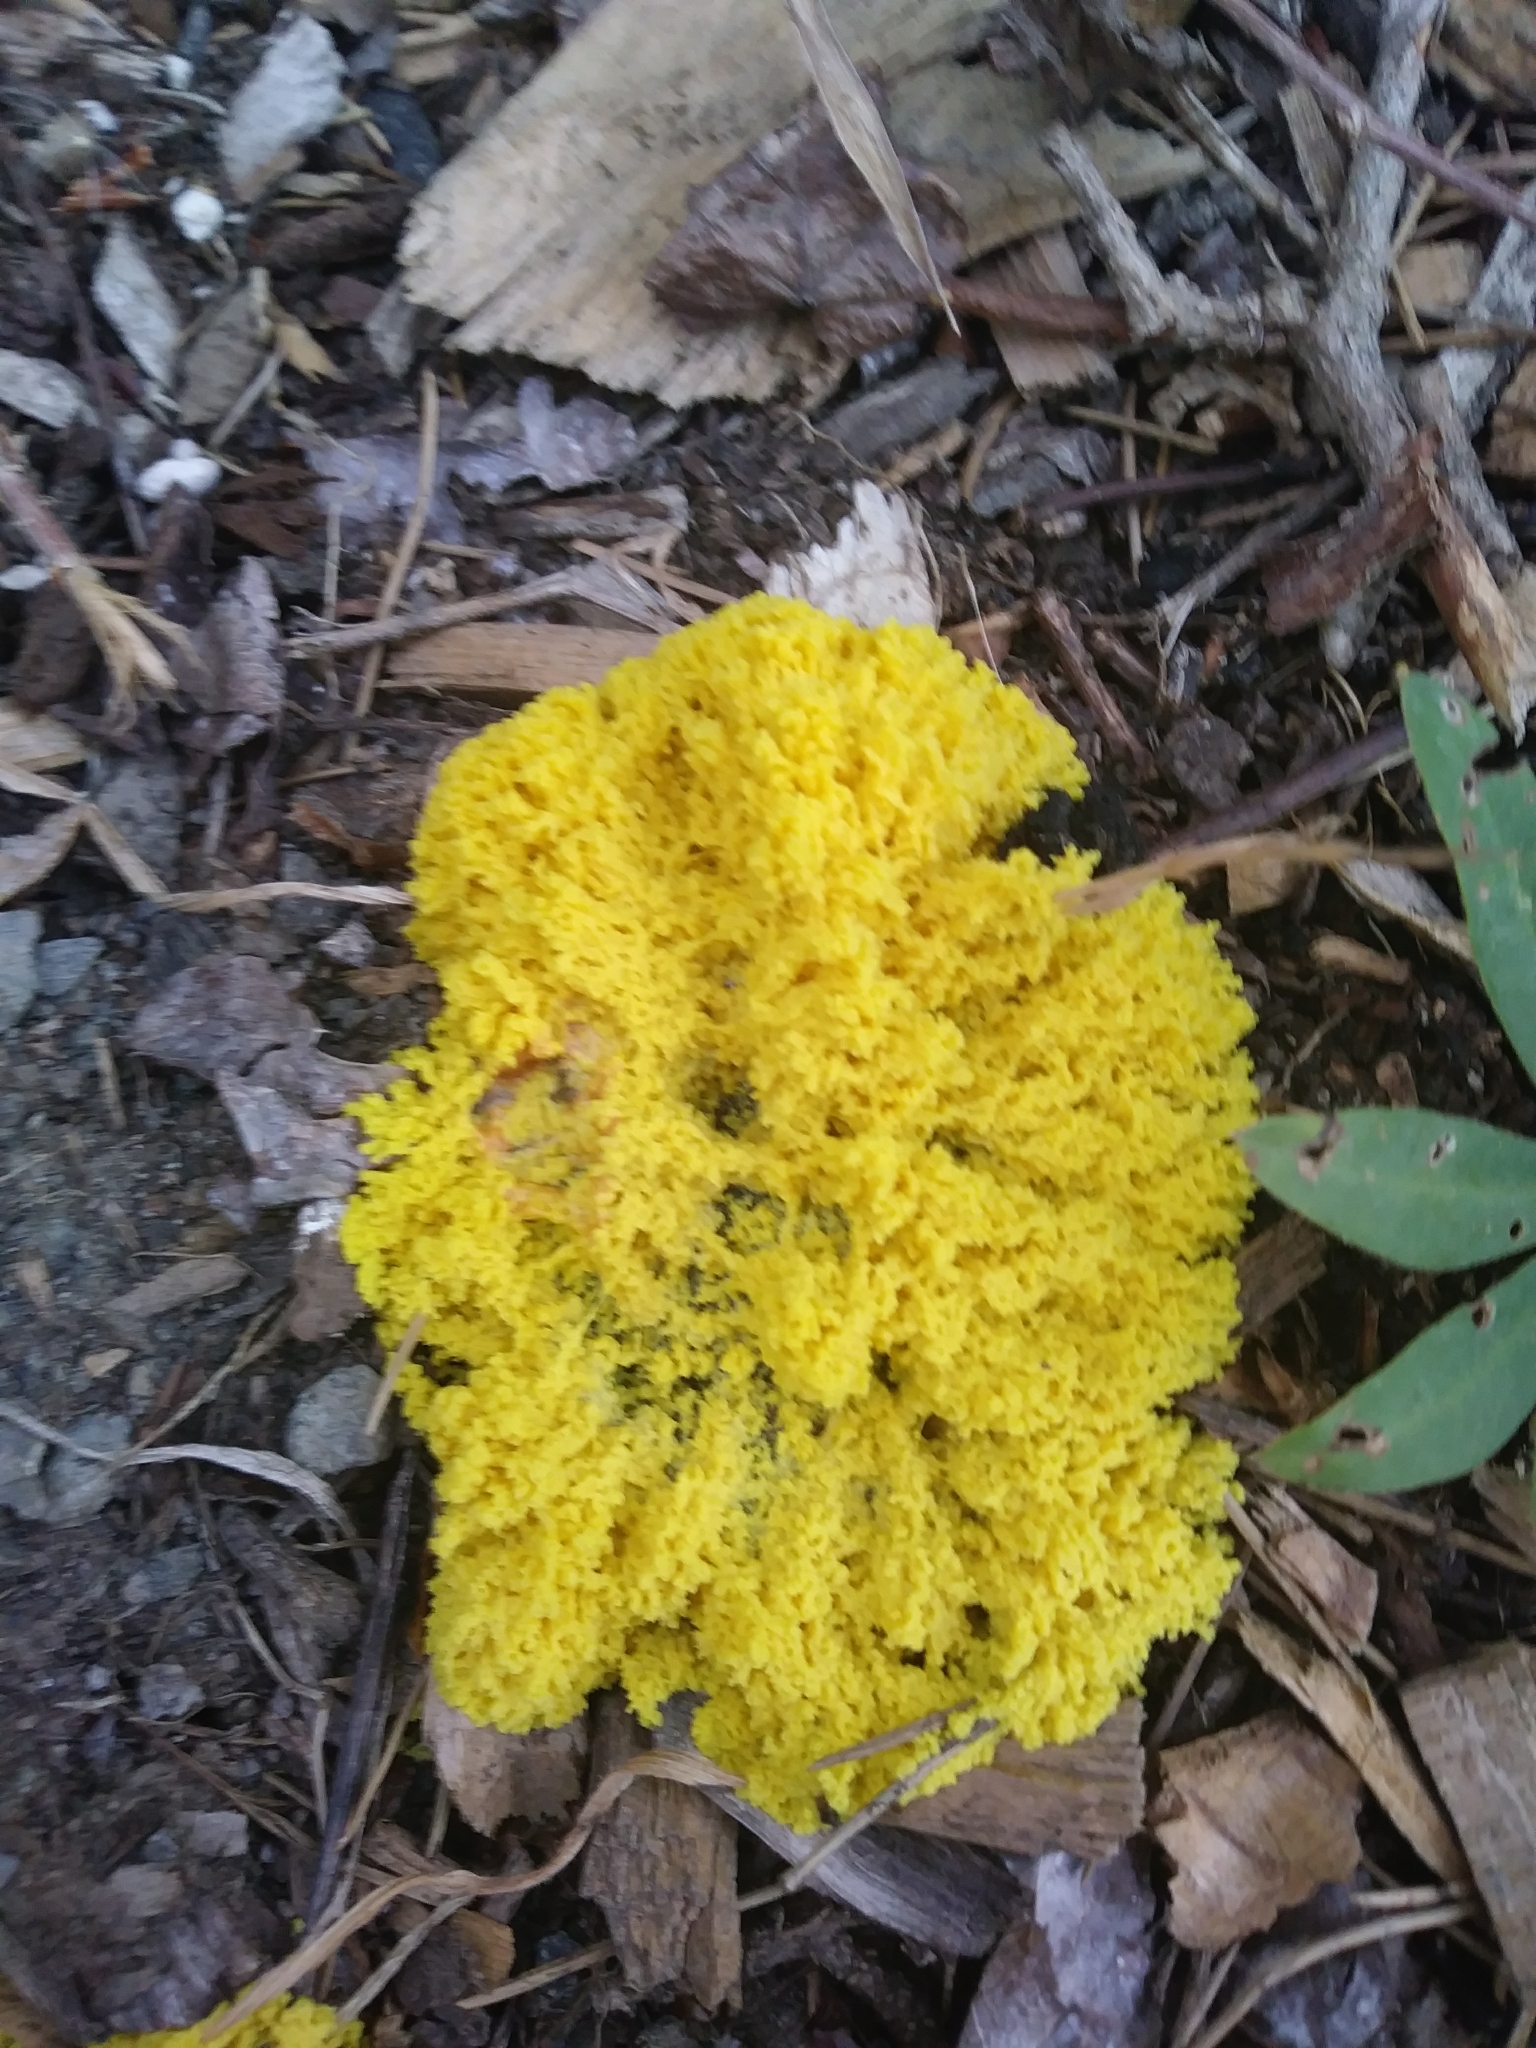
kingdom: Protozoa
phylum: Mycetozoa
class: Myxomycetes
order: Physarales
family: Physaraceae
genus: Fuligo
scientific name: Fuligo septica
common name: Dog vomit slime mold
